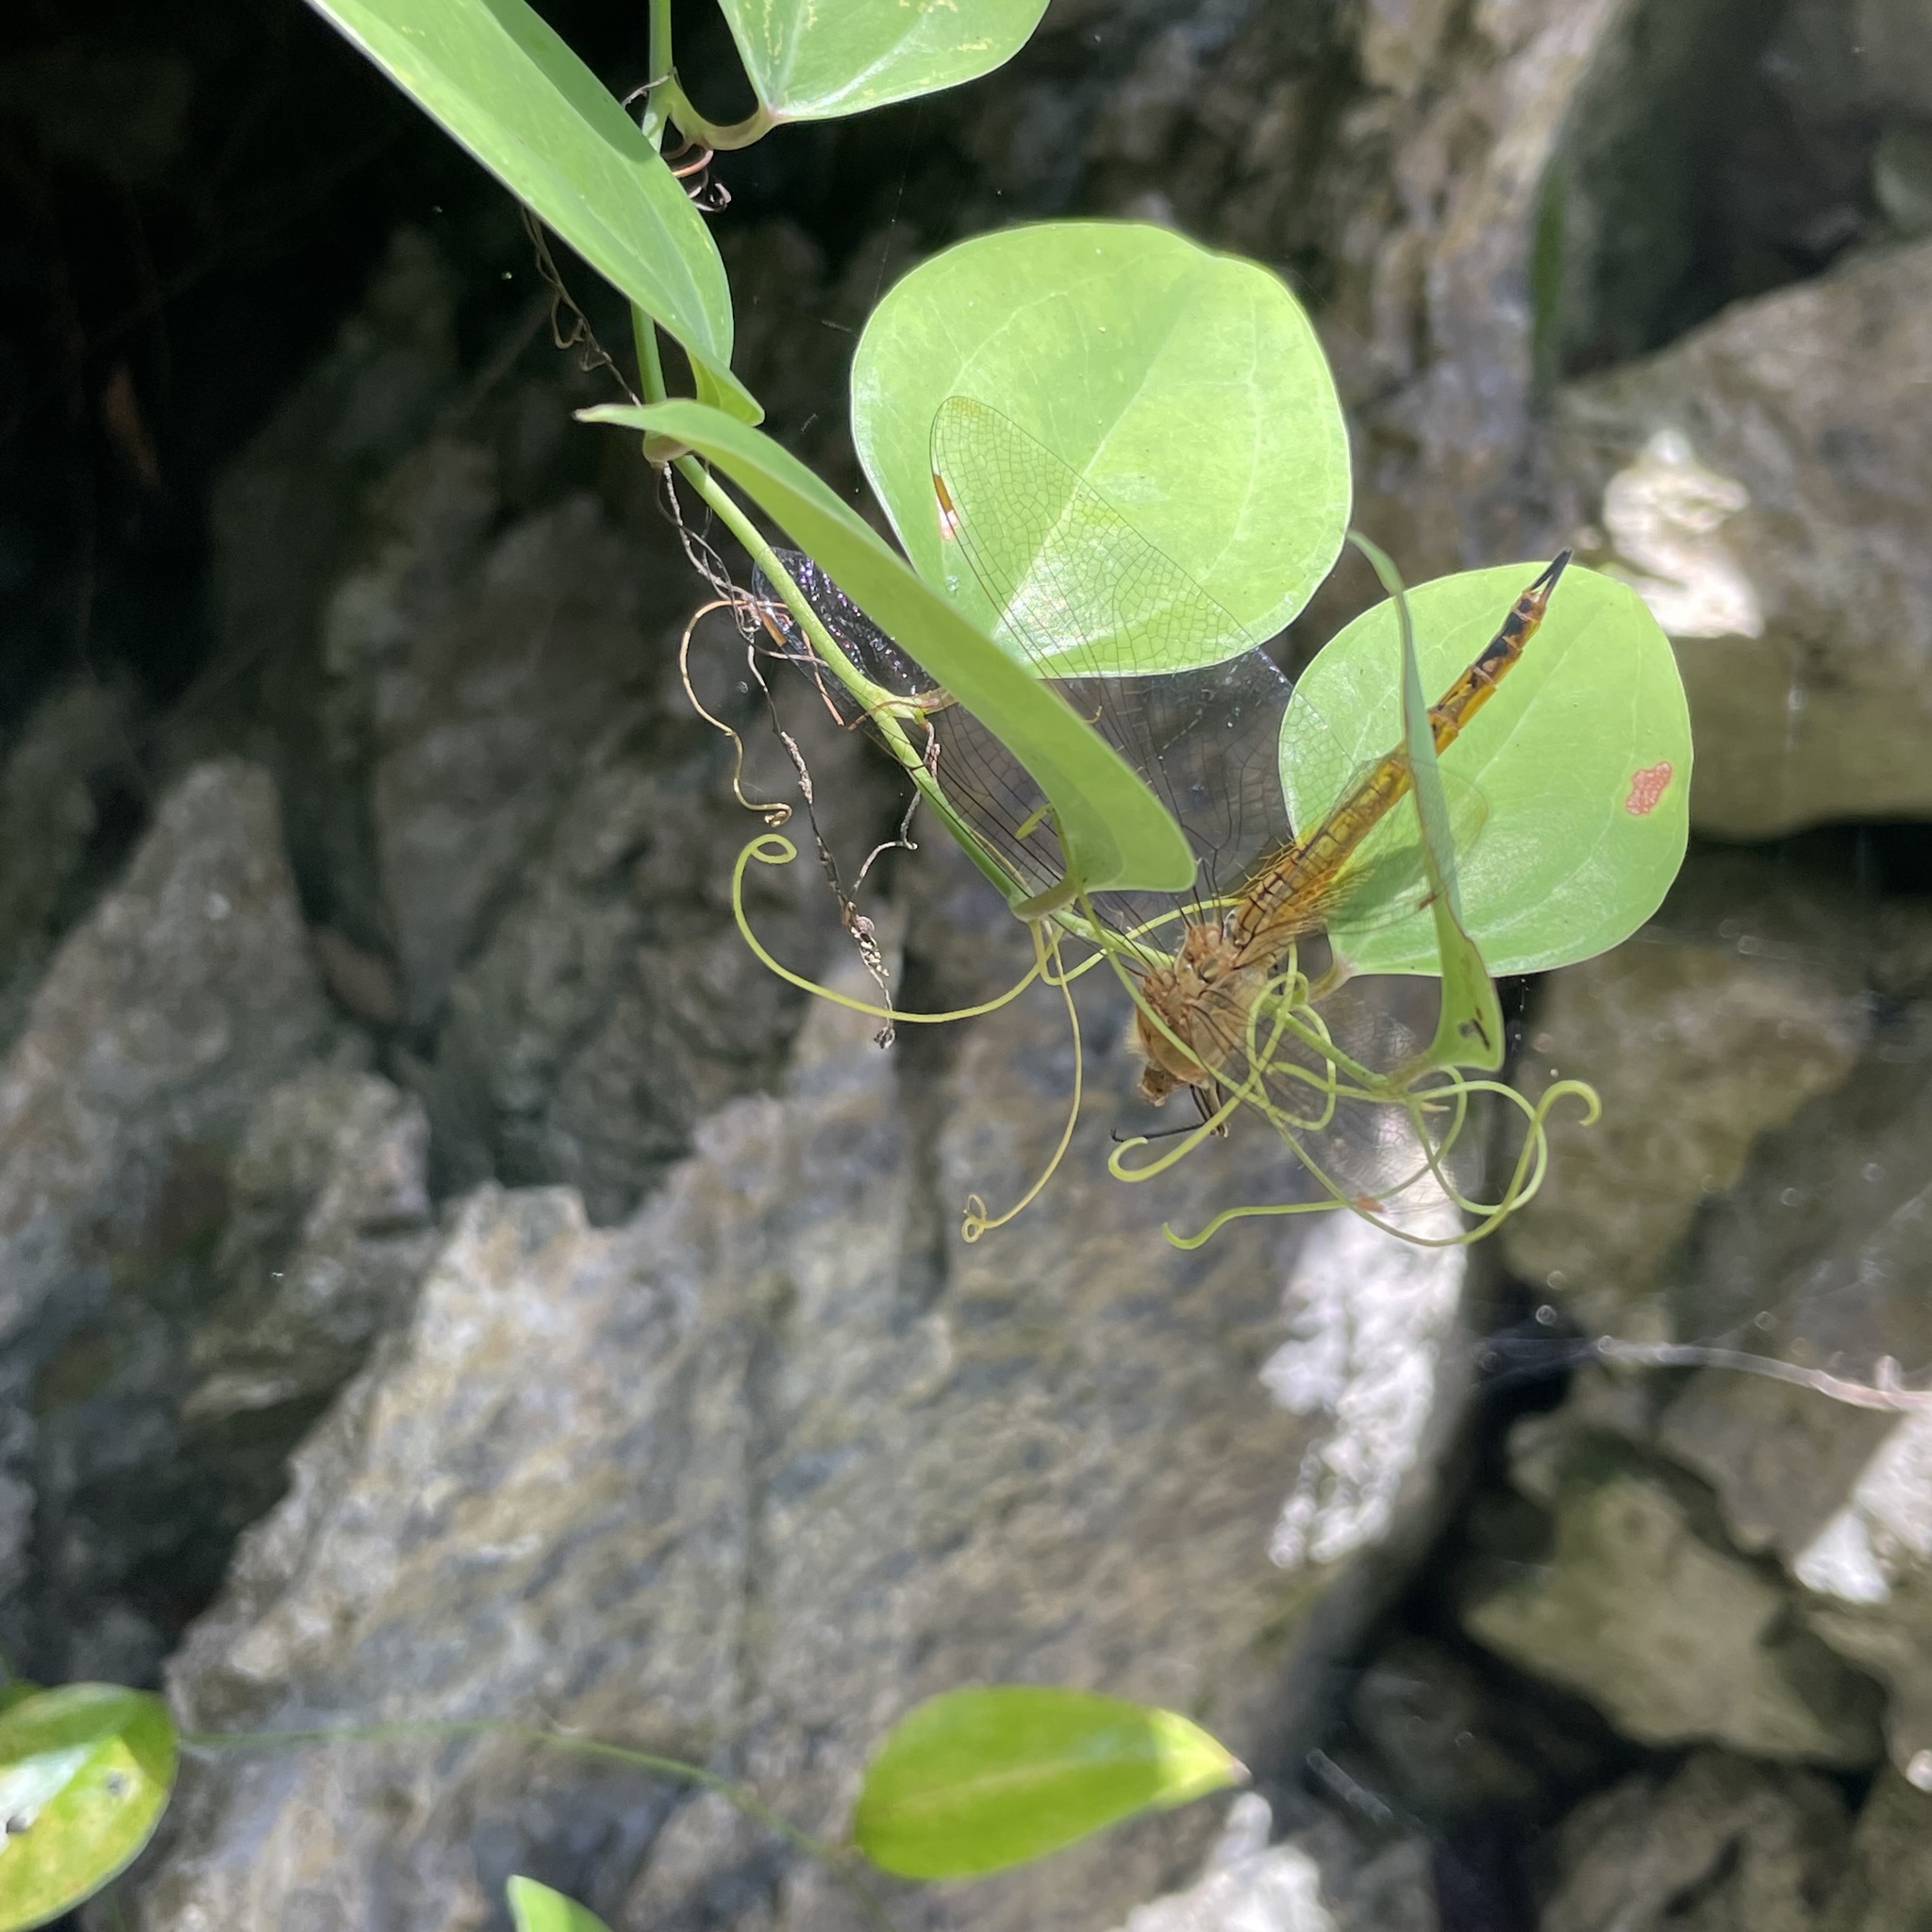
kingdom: Animalia
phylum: Arthropoda
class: Insecta
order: Odonata
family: Libellulidae
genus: Pantala
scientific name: Pantala flavescens
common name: Wandering glider
